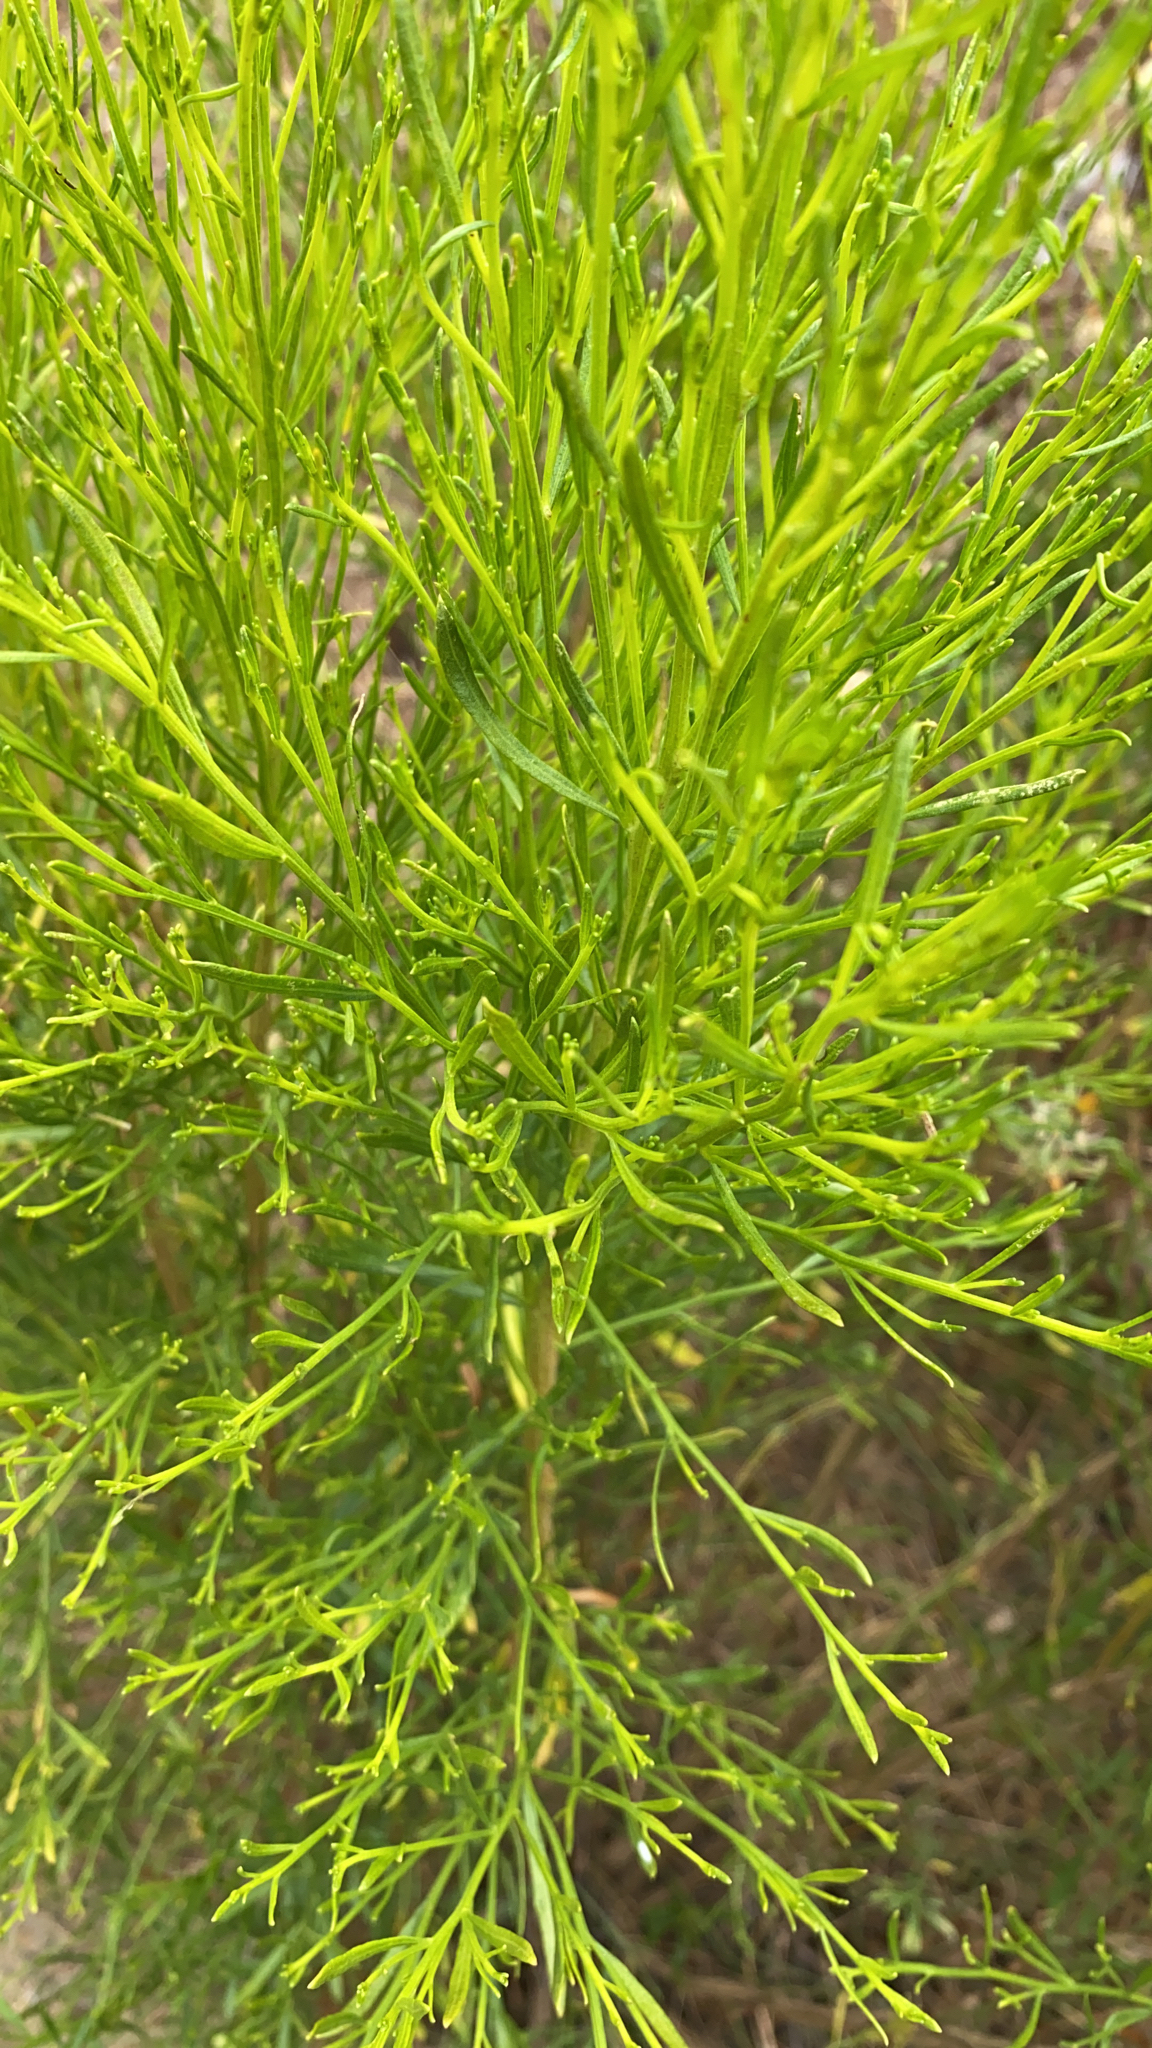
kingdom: Plantae
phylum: Tracheophyta
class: Magnoliopsida
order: Asterales
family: Asteraceae
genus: Baccharis
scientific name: Baccharis sarothroides
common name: Desert-broom
